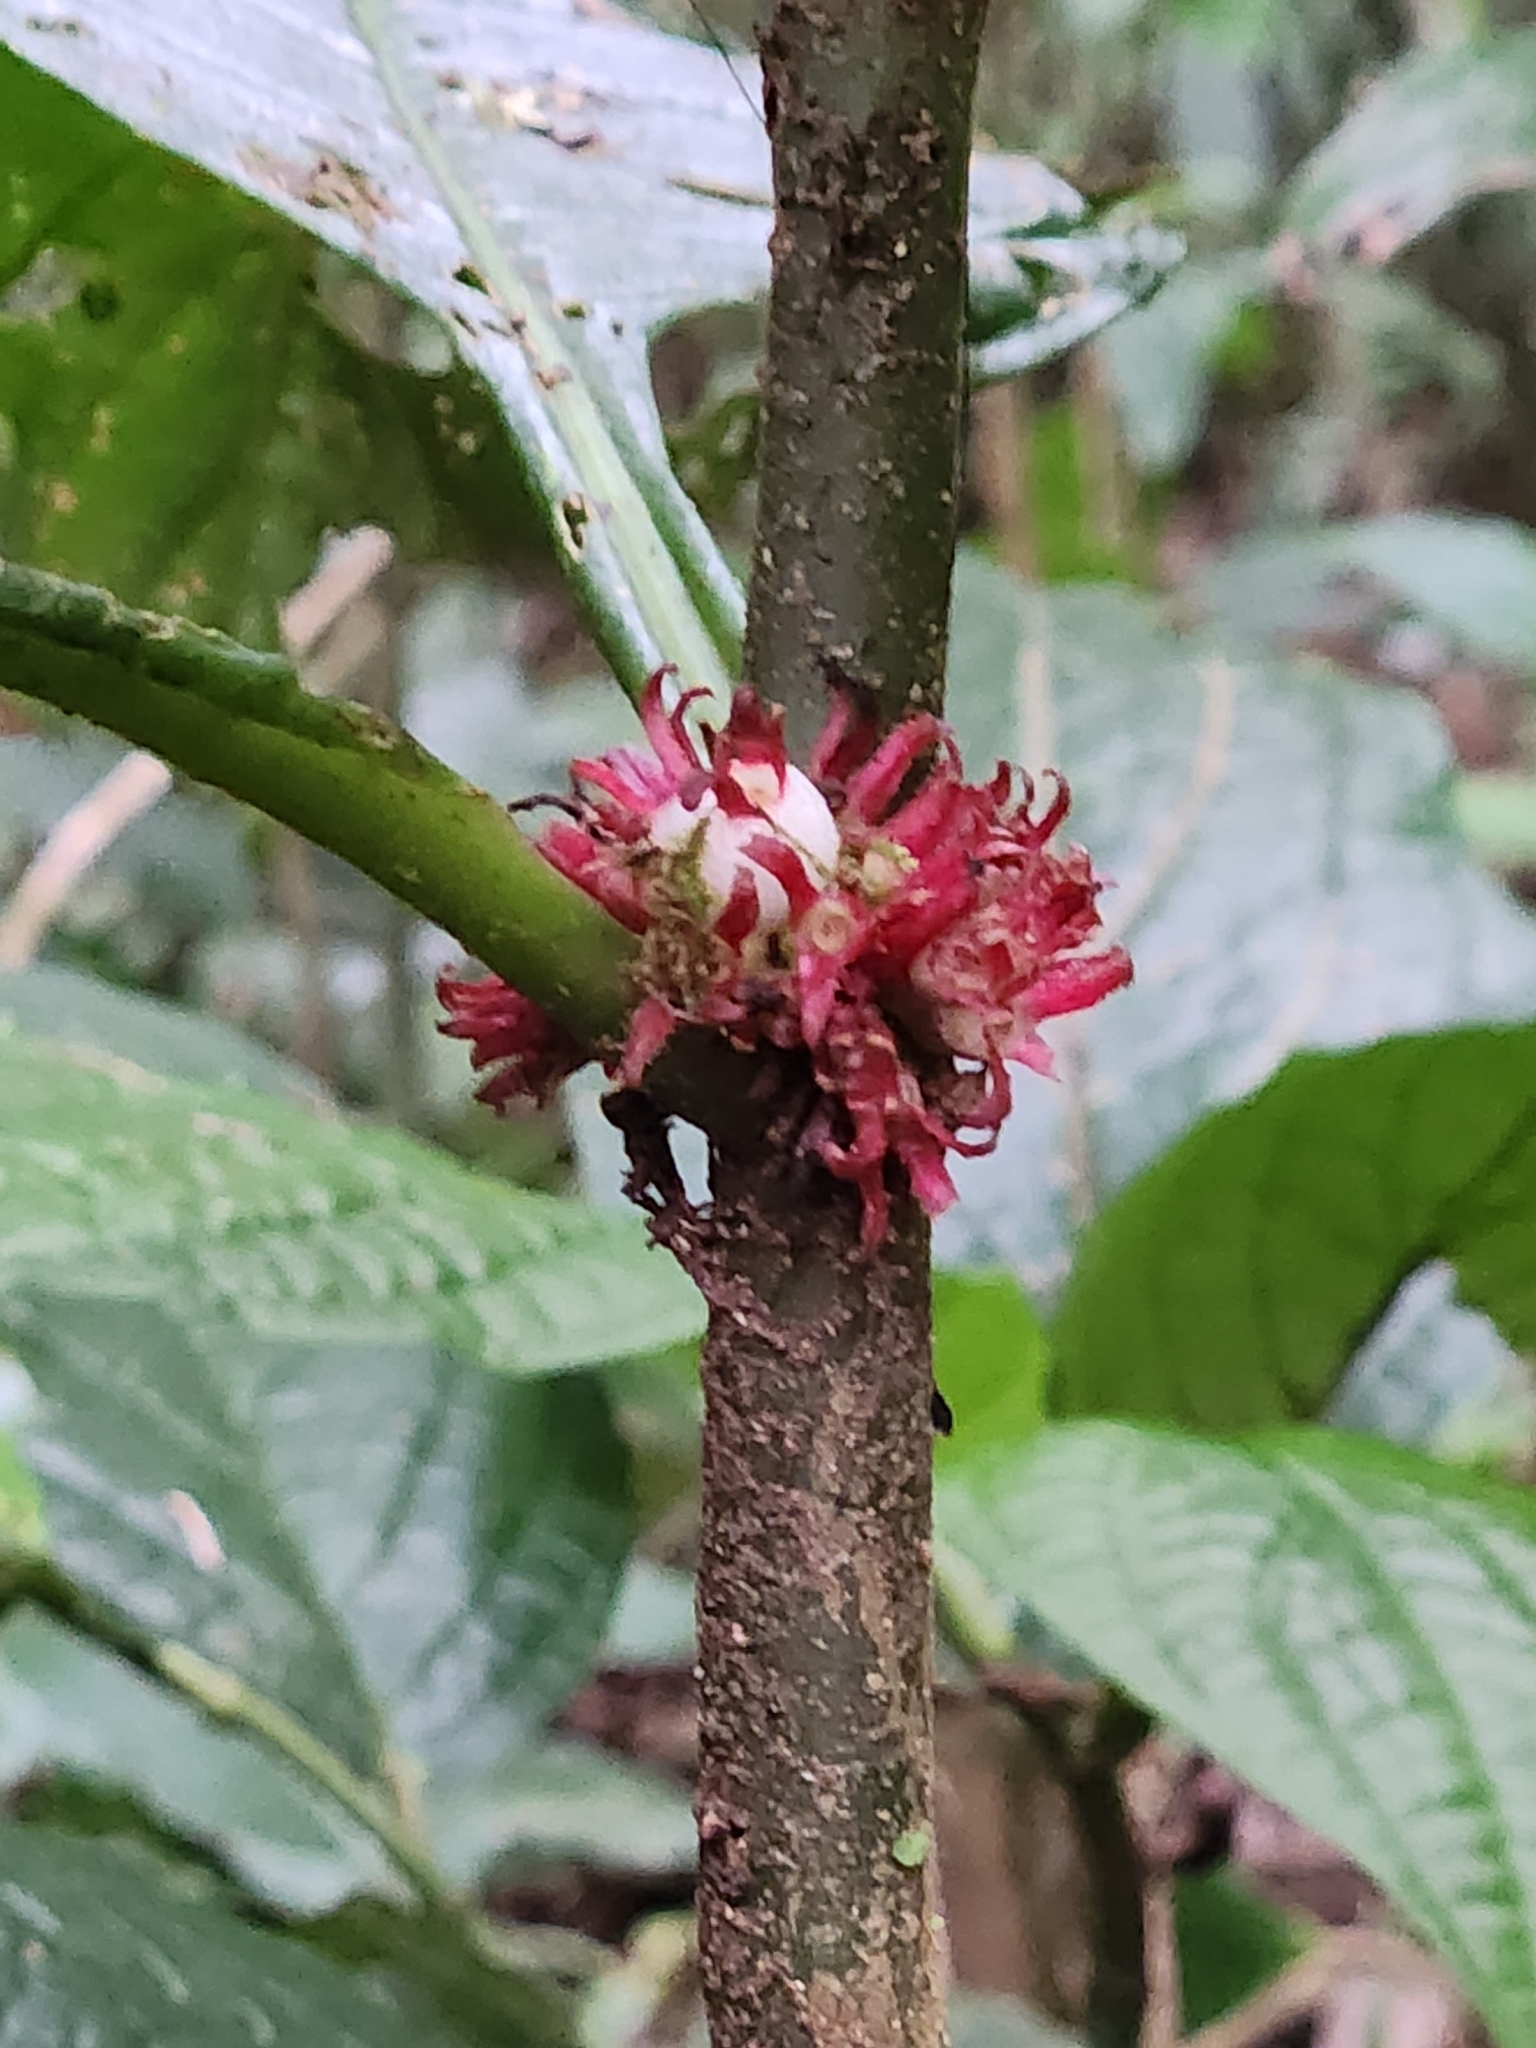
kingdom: Plantae
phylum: Tracheophyta
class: Magnoliopsida
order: Gentianales
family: Rubiaceae
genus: Hoffmannia
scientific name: Hoffmannia congesta
